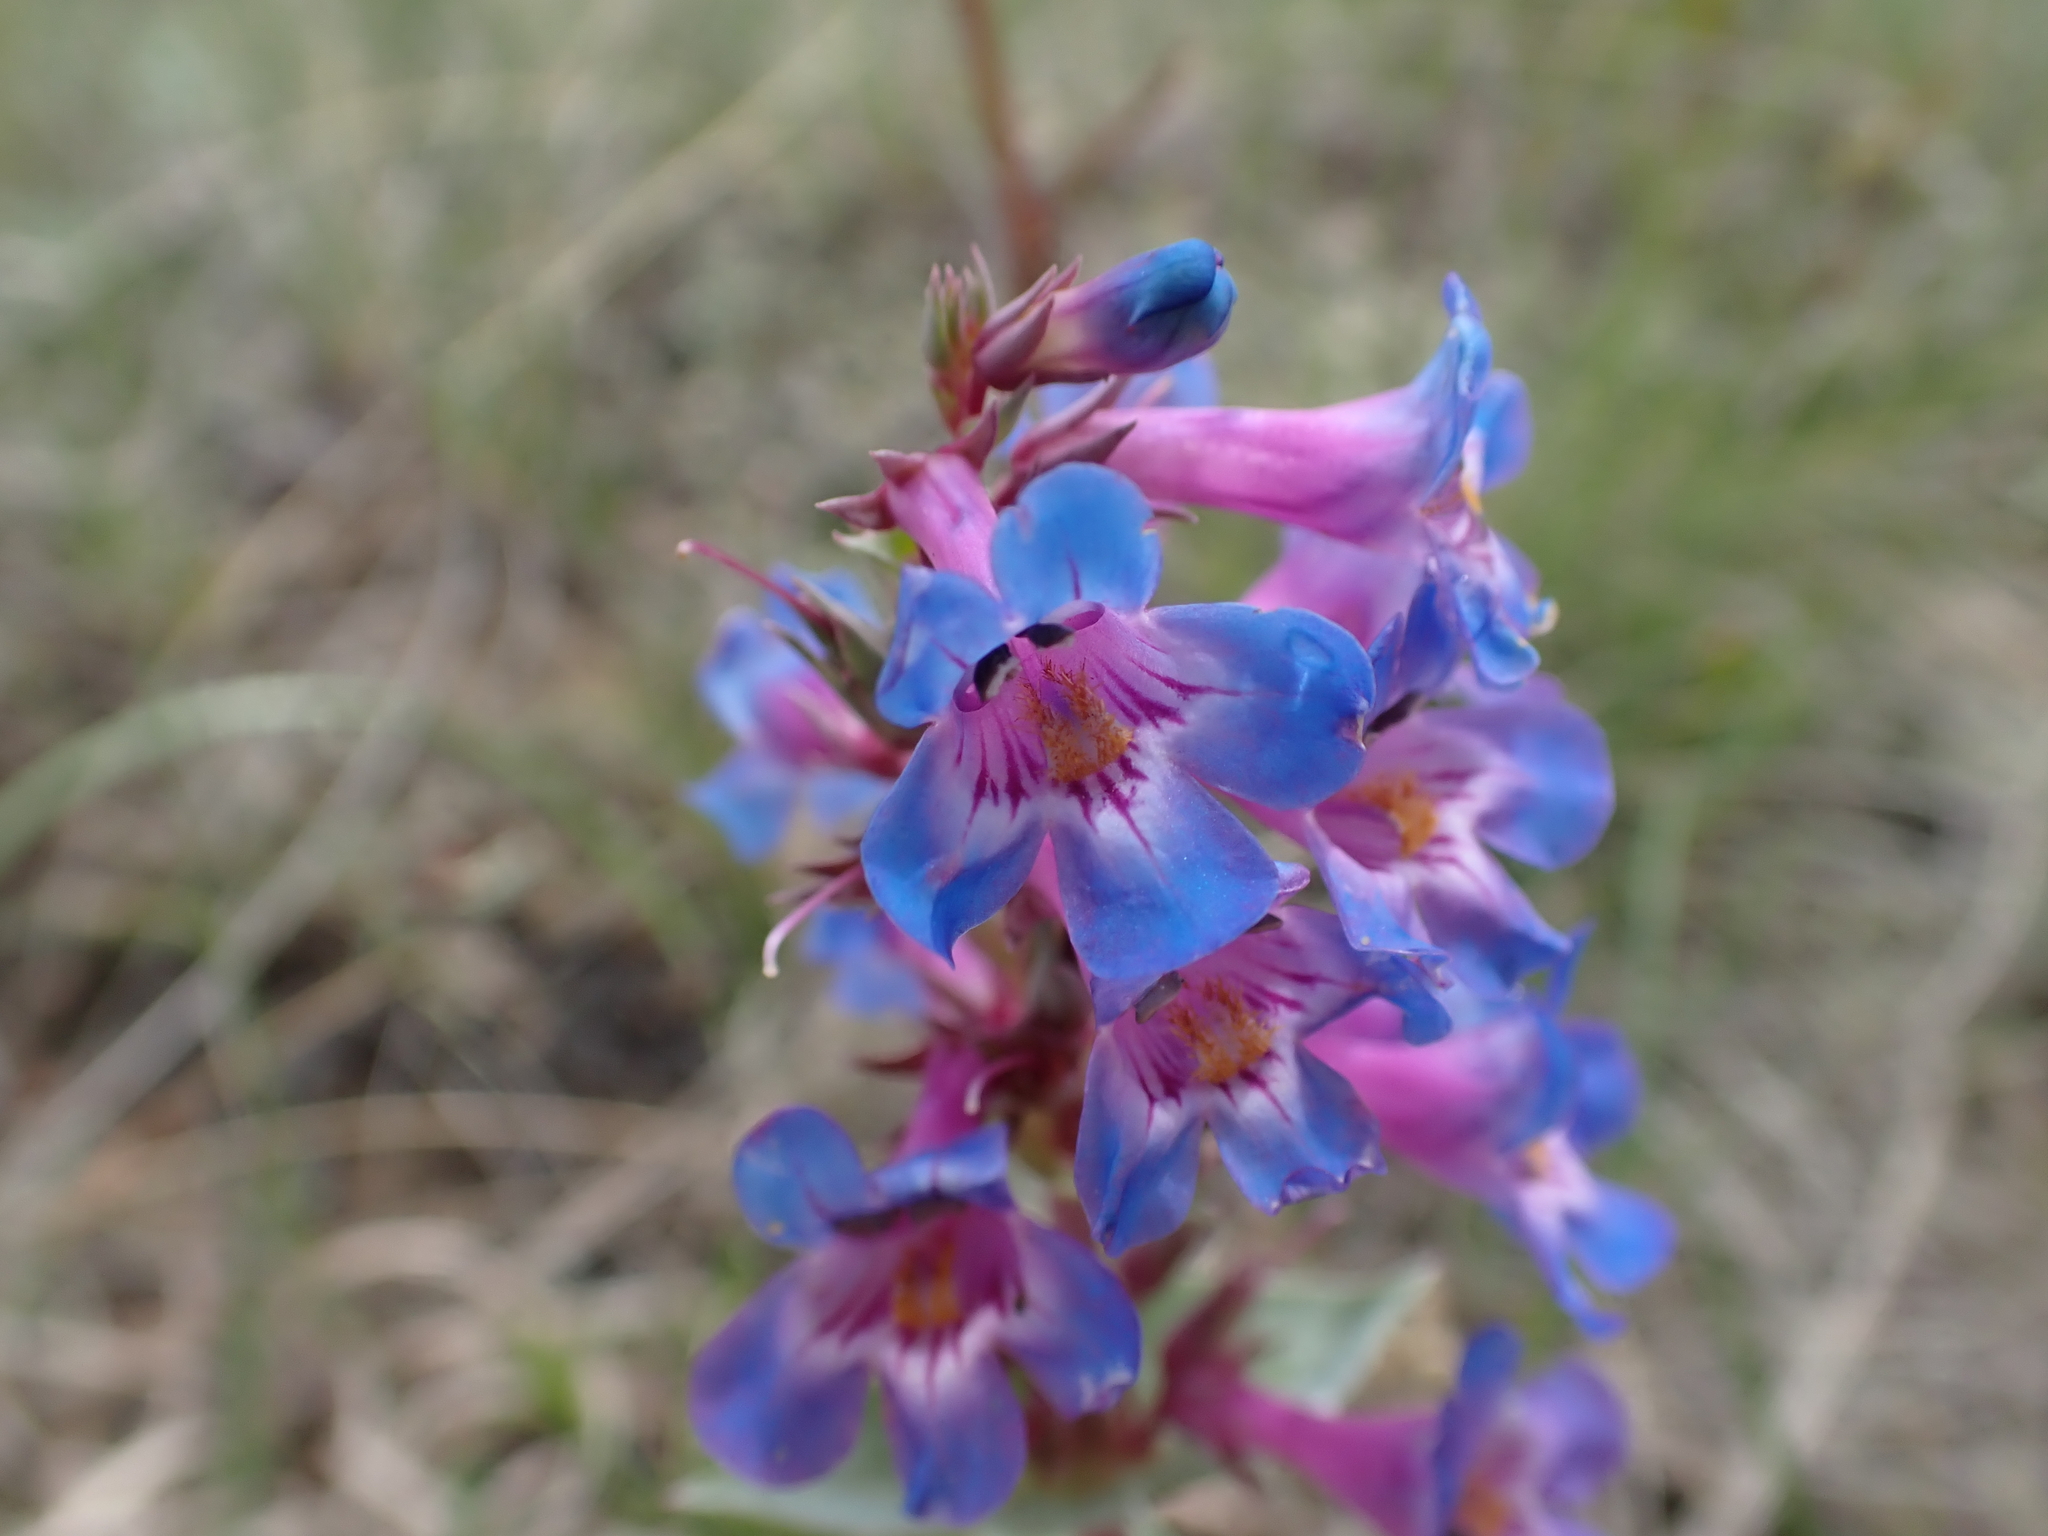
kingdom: Plantae
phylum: Tracheophyta
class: Magnoliopsida
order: Lamiales
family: Plantaginaceae
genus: Penstemon
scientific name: Penstemon nitidus
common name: Shining penstemon
